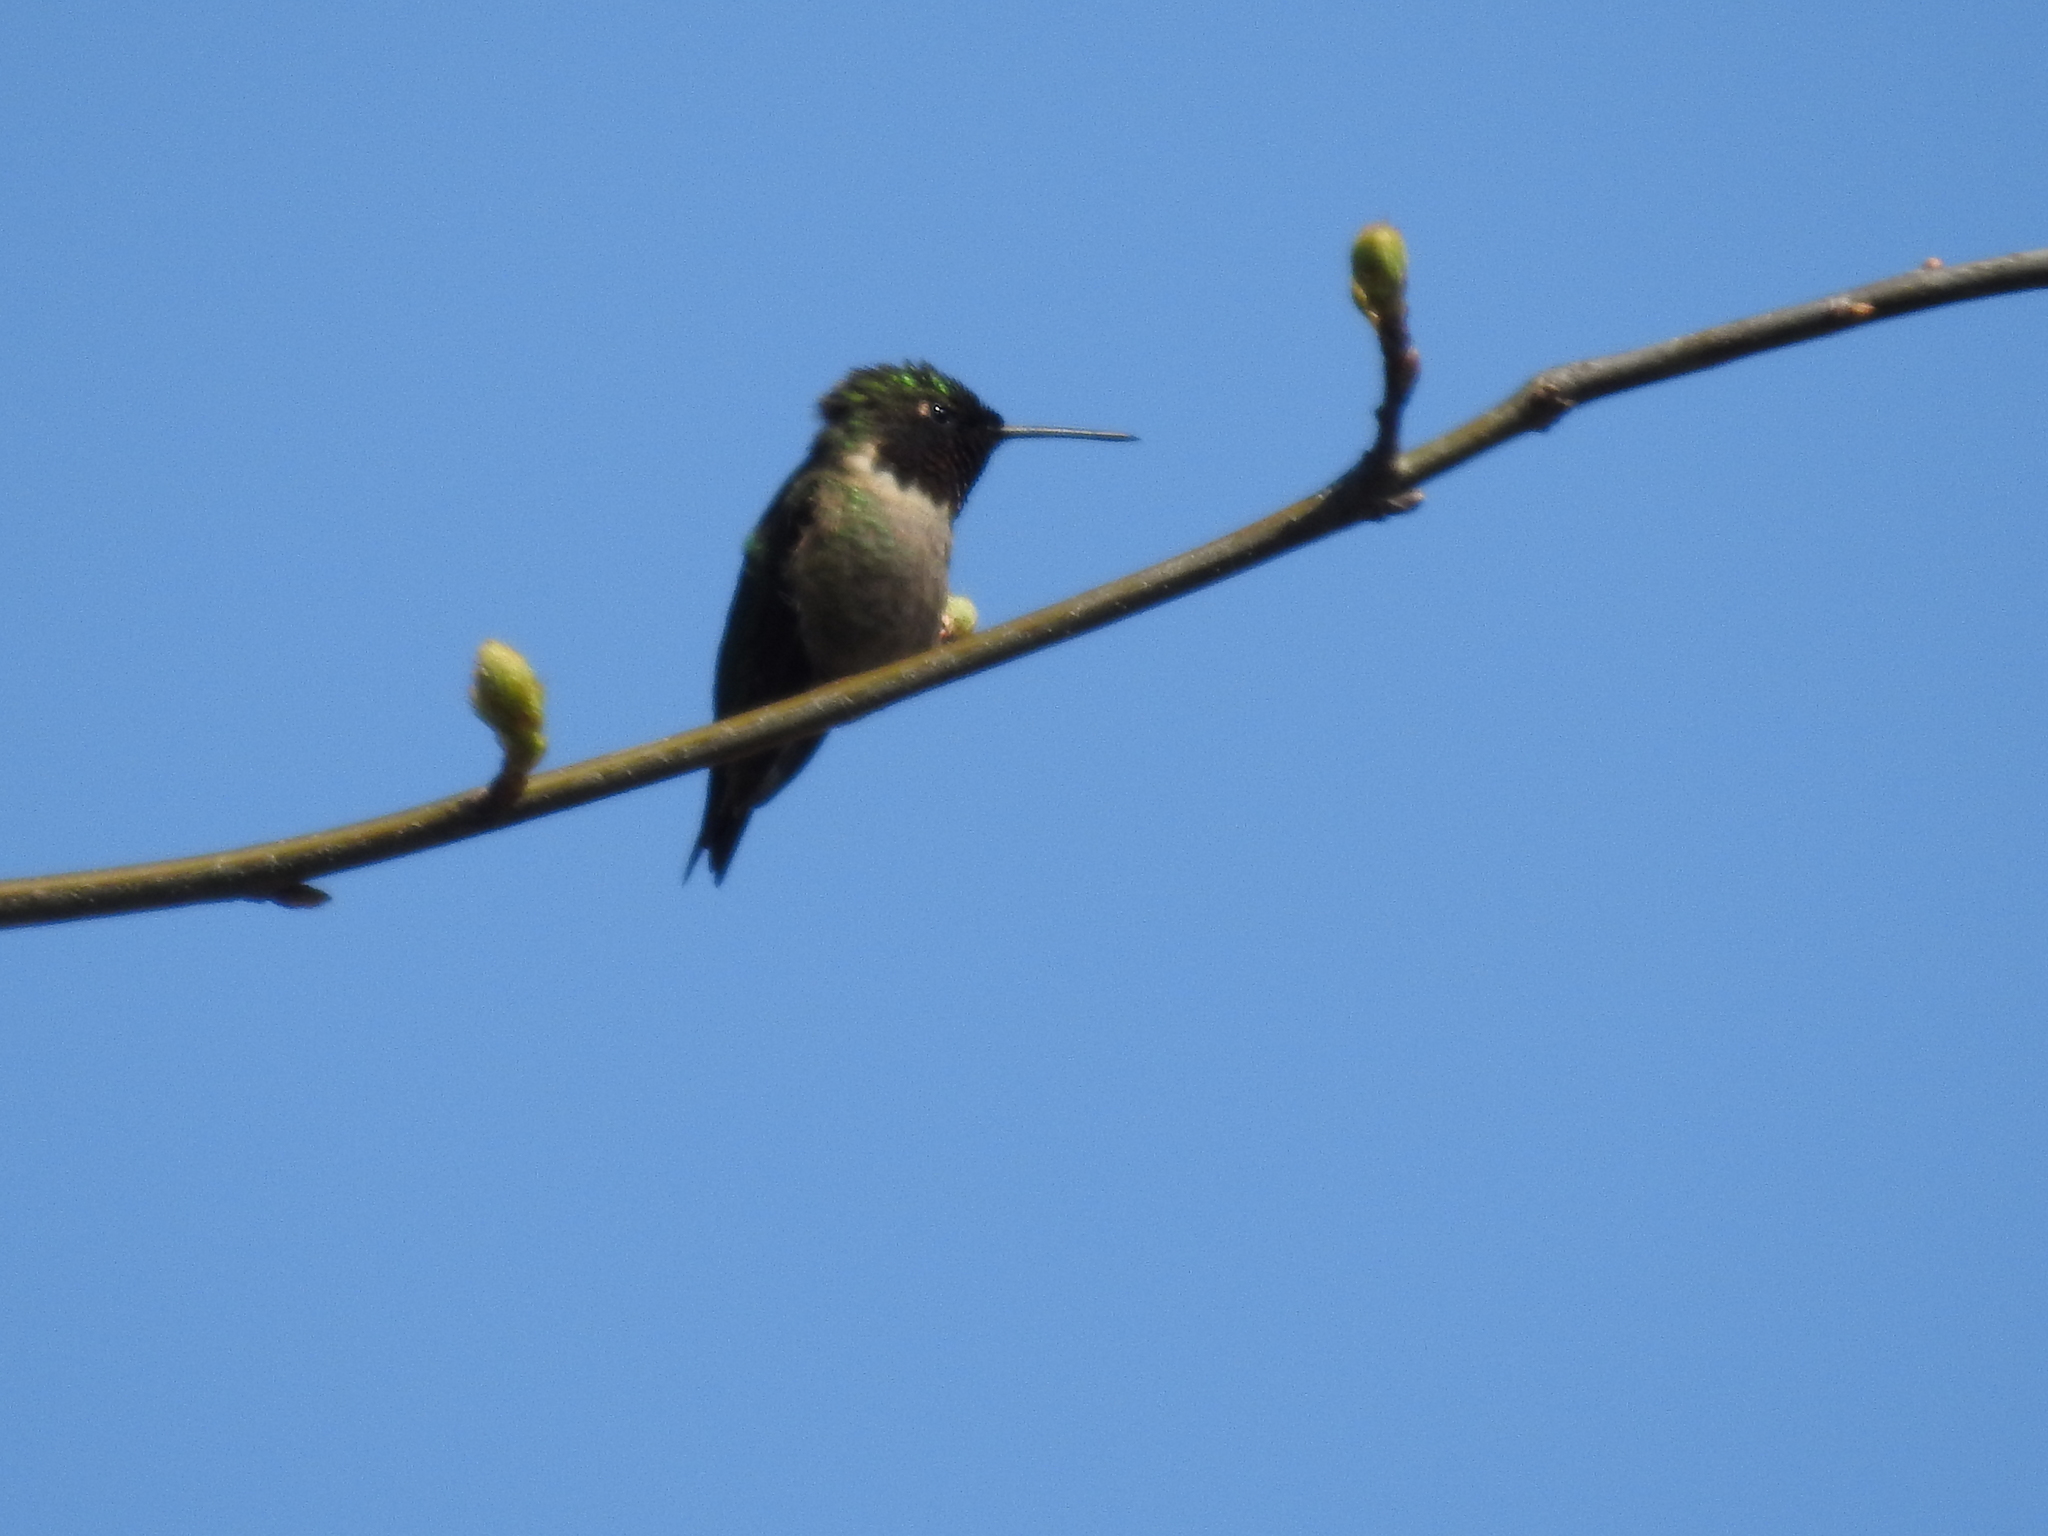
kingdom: Animalia
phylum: Chordata
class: Aves
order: Apodiformes
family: Trochilidae
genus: Archilochus
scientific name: Archilochus colubris
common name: Ruby-throated hummingbird
